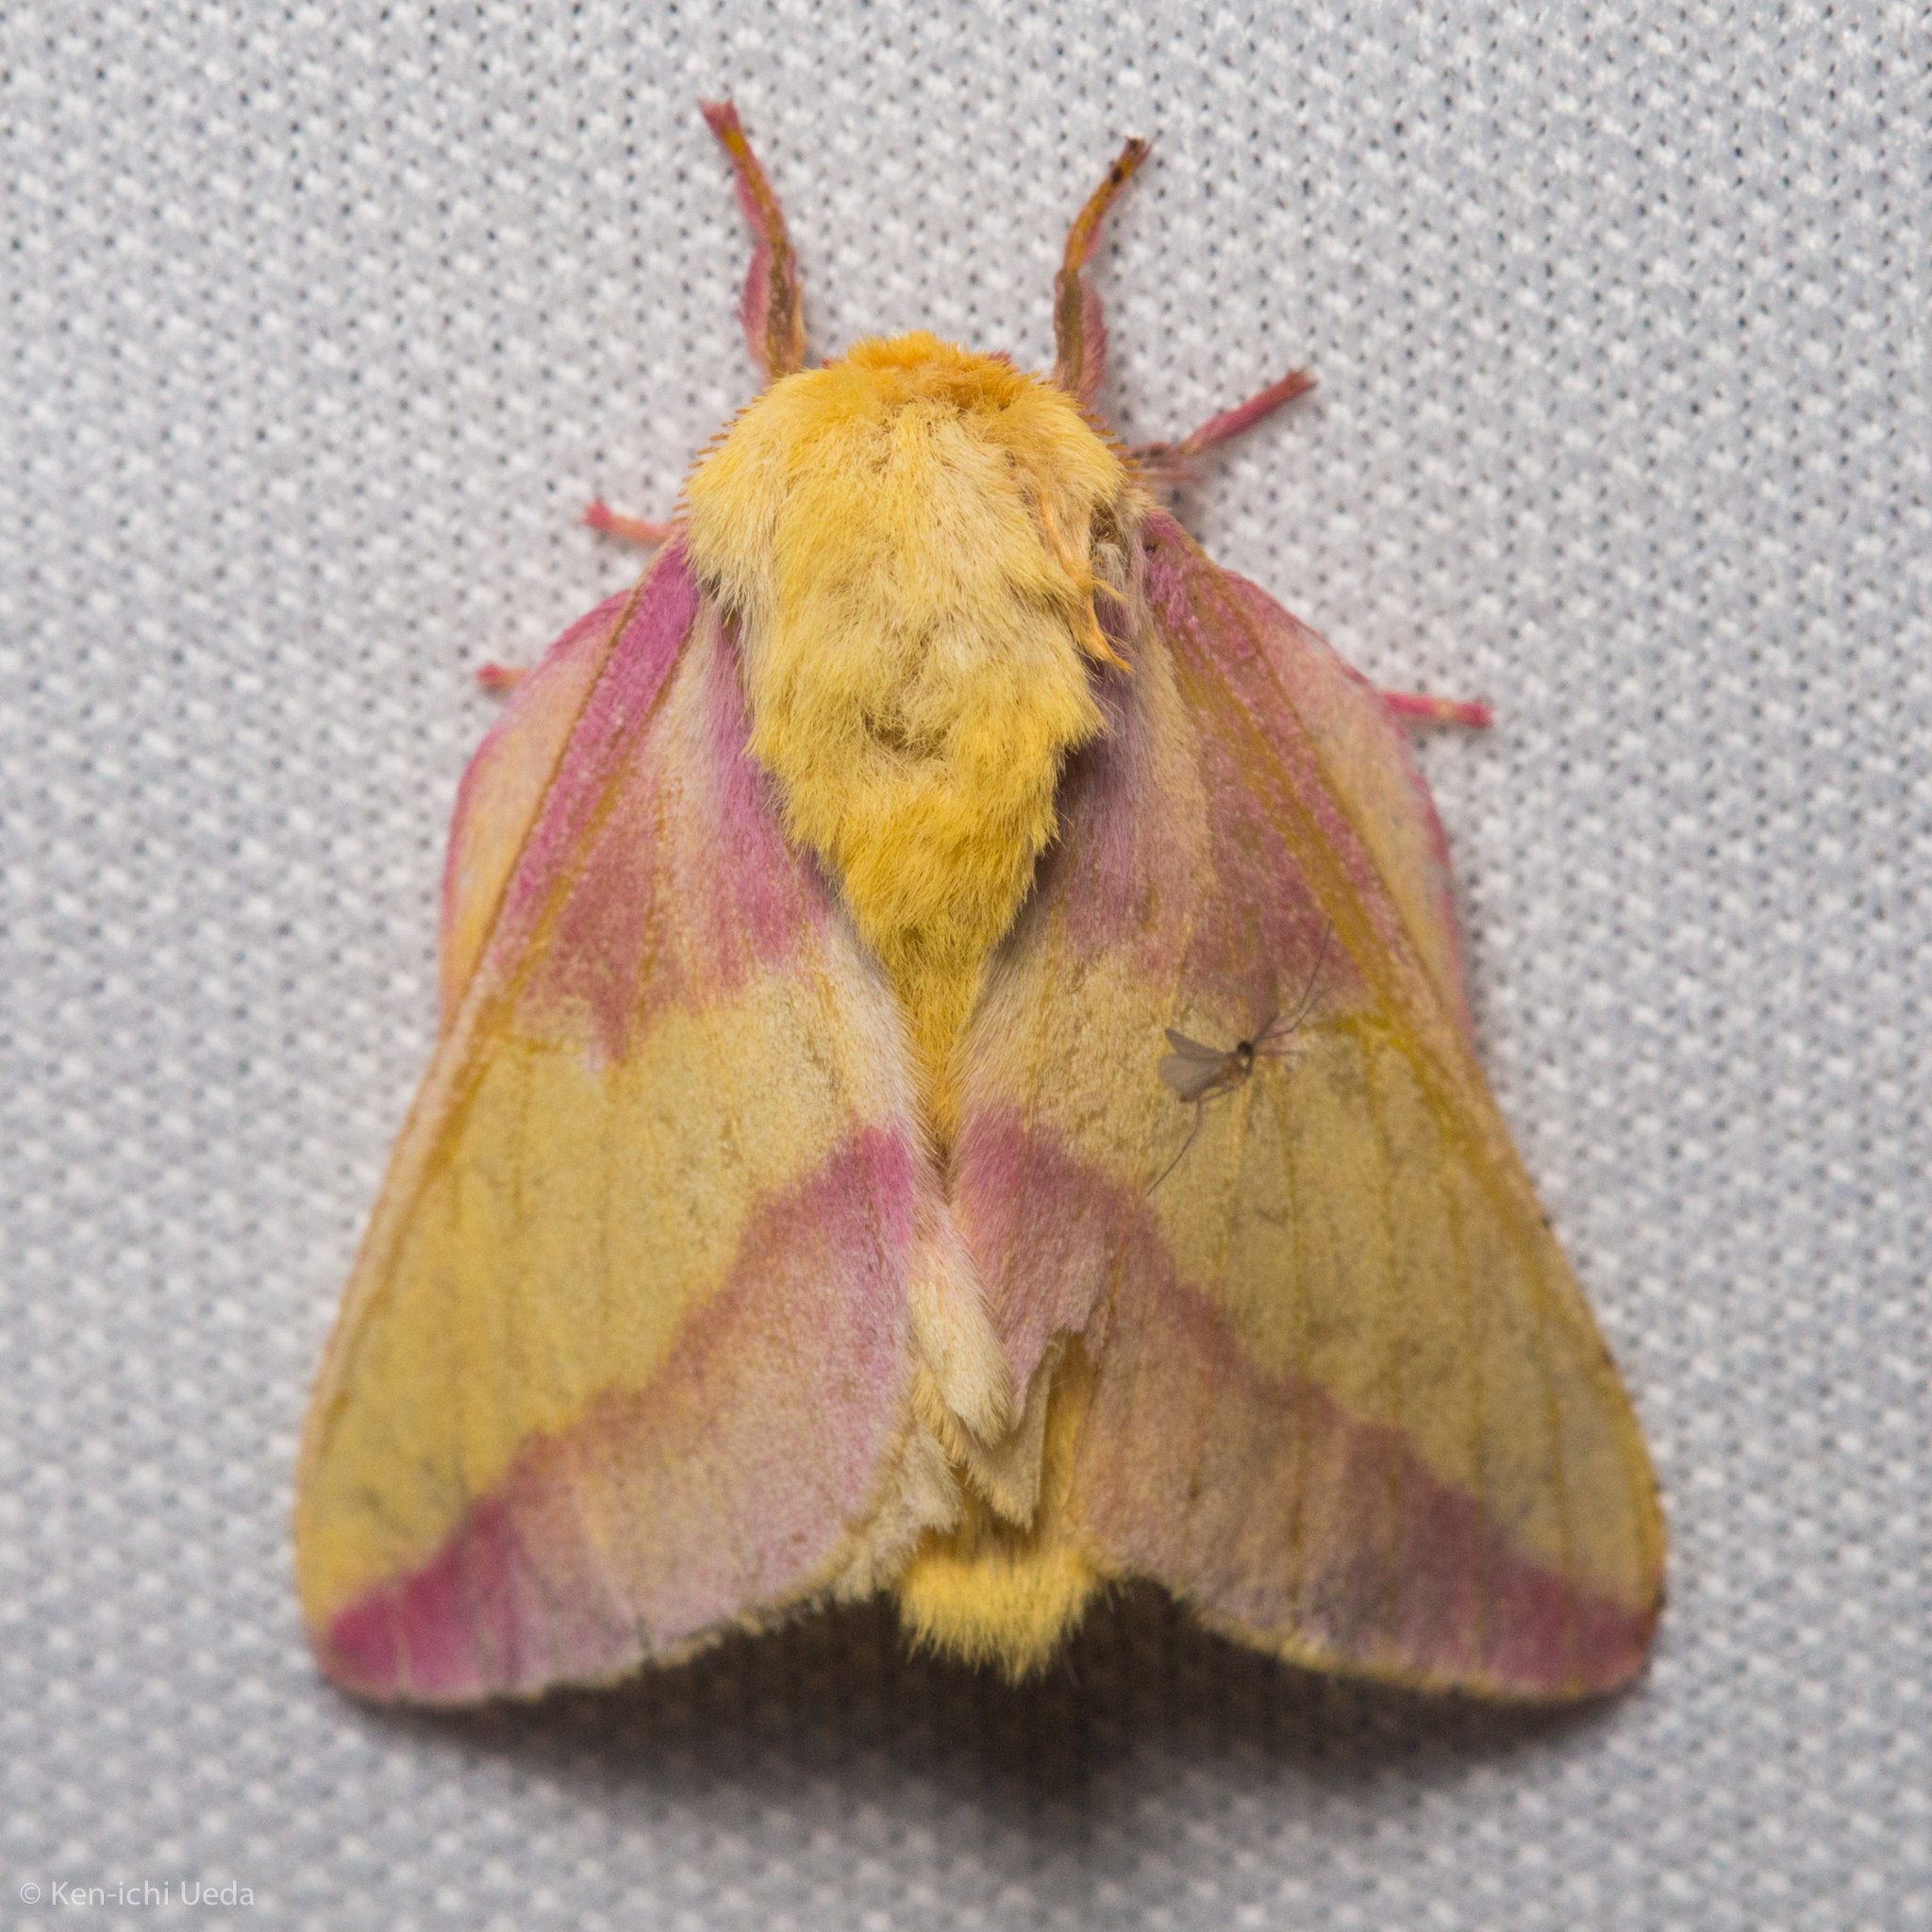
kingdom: Animalia
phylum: Arthropoda
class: Insecta
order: Lepidoptera
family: Saturniidae
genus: Dryocampa
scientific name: Dryocampa rubicunda
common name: Rosy maple moth
